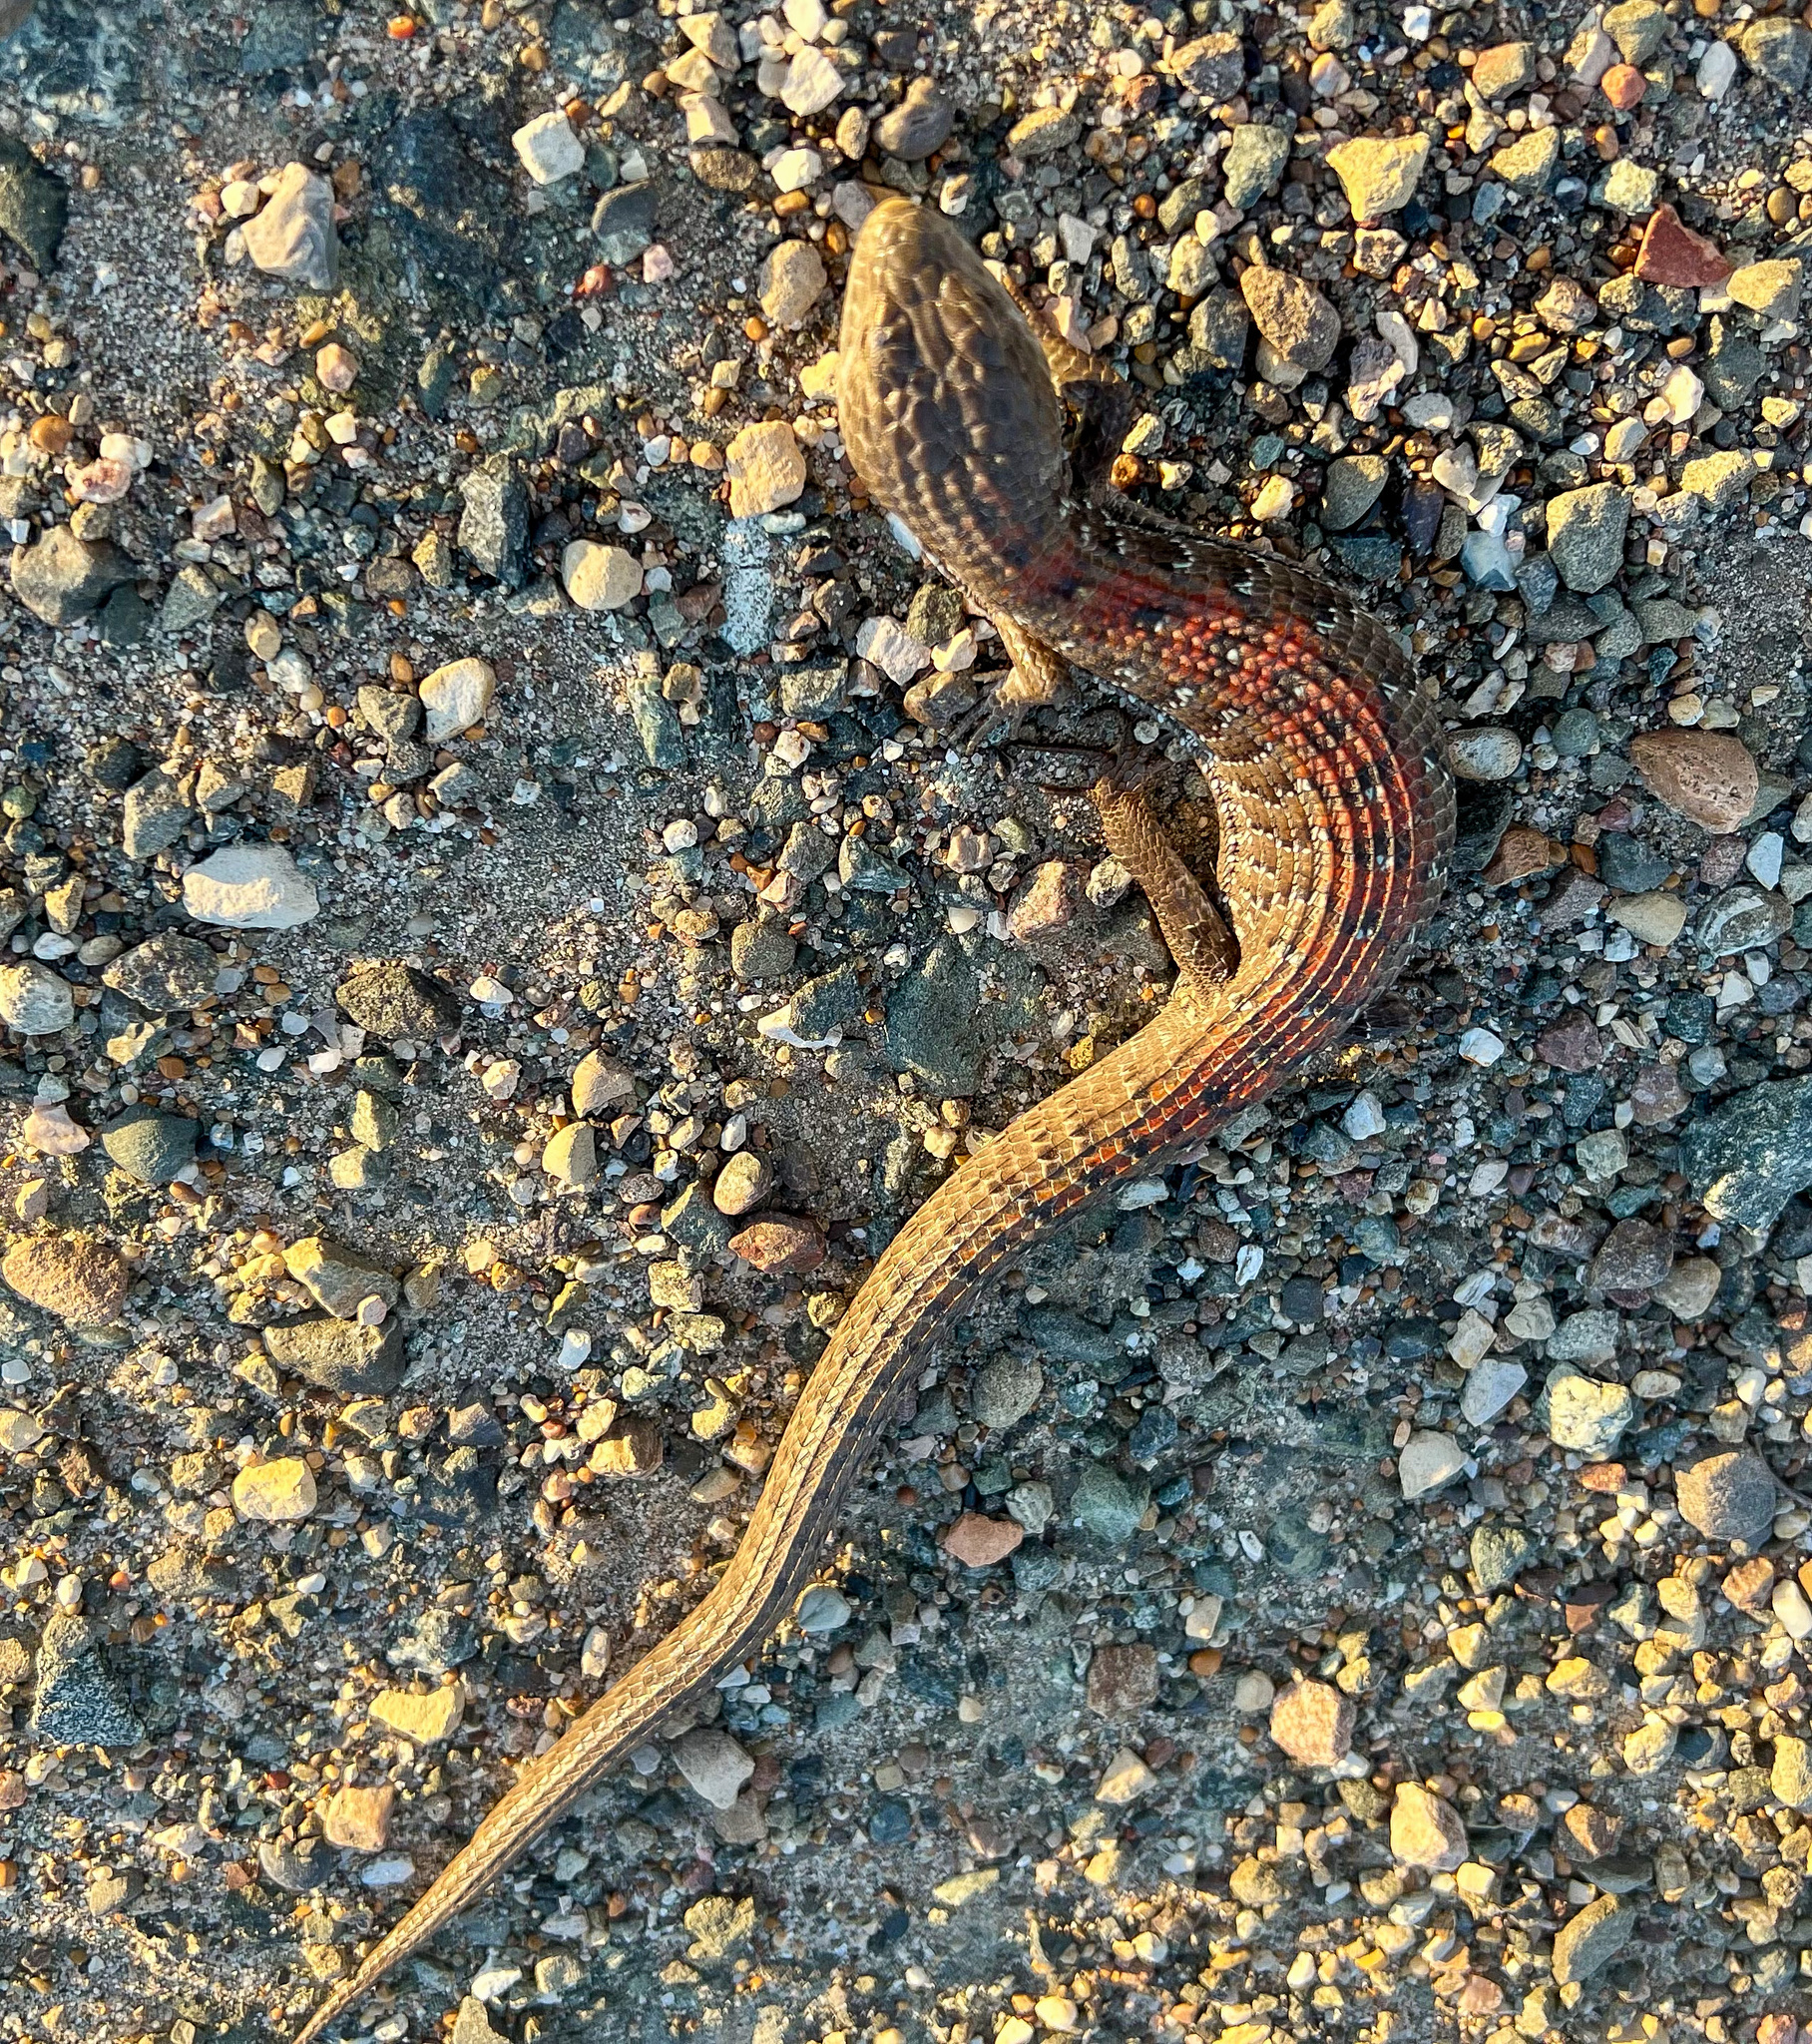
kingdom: Animalia
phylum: Chordata
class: Squamata
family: Anguidae
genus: Elgaria
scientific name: Elgaria multicarinata
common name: Southern alligator lizard
